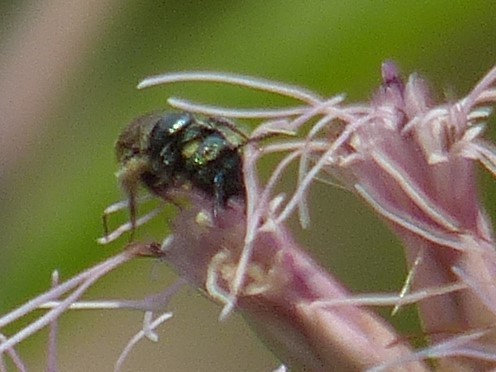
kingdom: Animalia
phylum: Arthropoda
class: Insecta
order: Hymenoptera
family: Apidae
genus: Zadontomerus
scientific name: Zadontomerus
